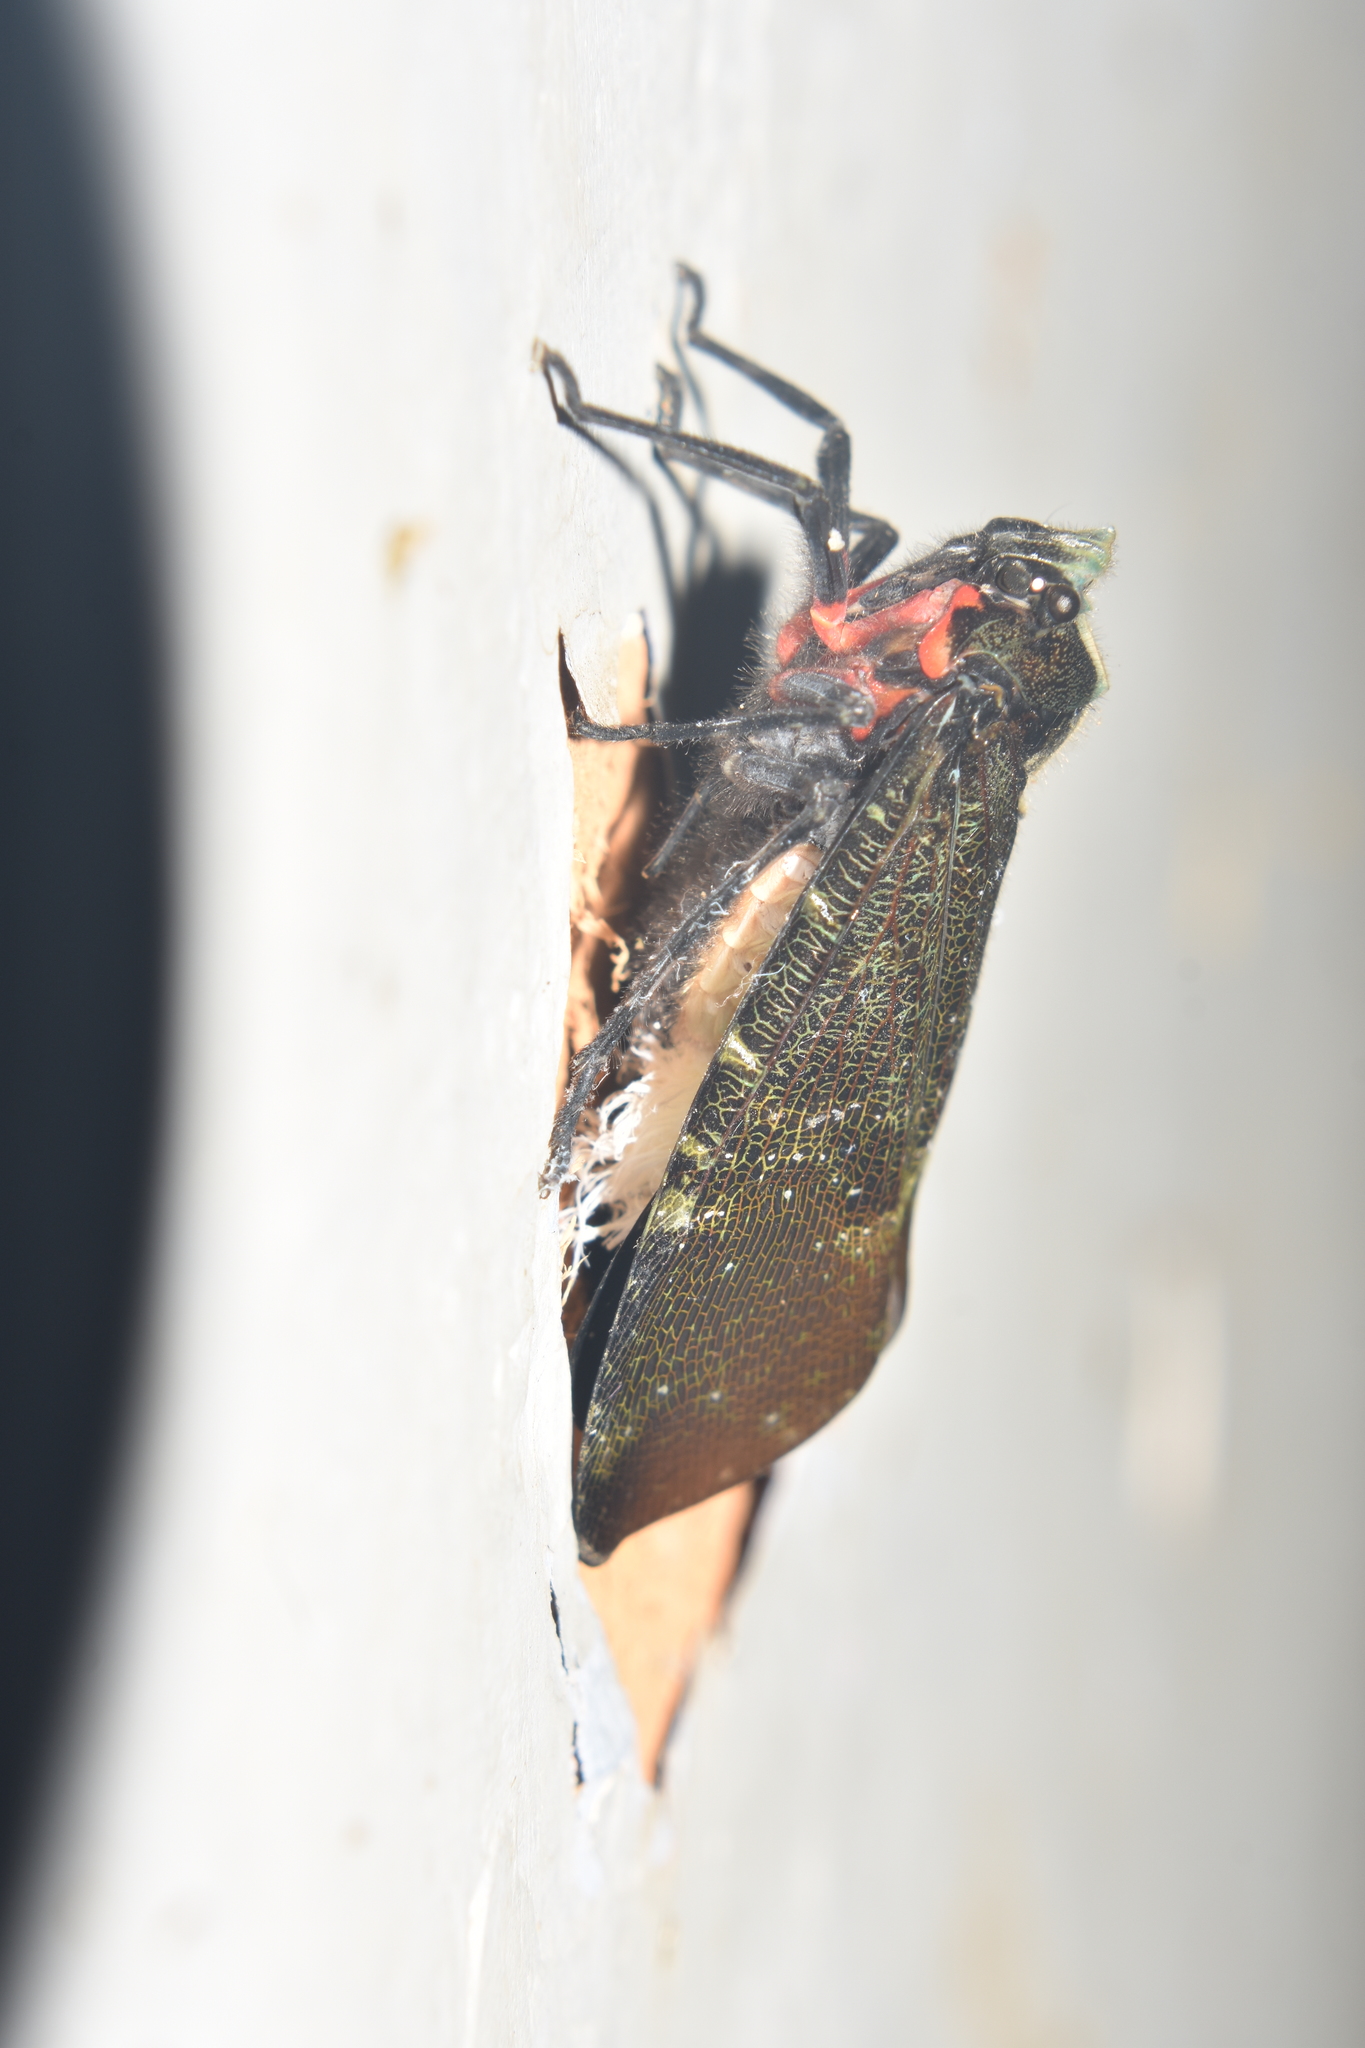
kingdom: Animalia
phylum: Arthropoda
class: Insecta
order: Hemiptera
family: Fulgoridae
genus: Menenia
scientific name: Menenia terebrifera
